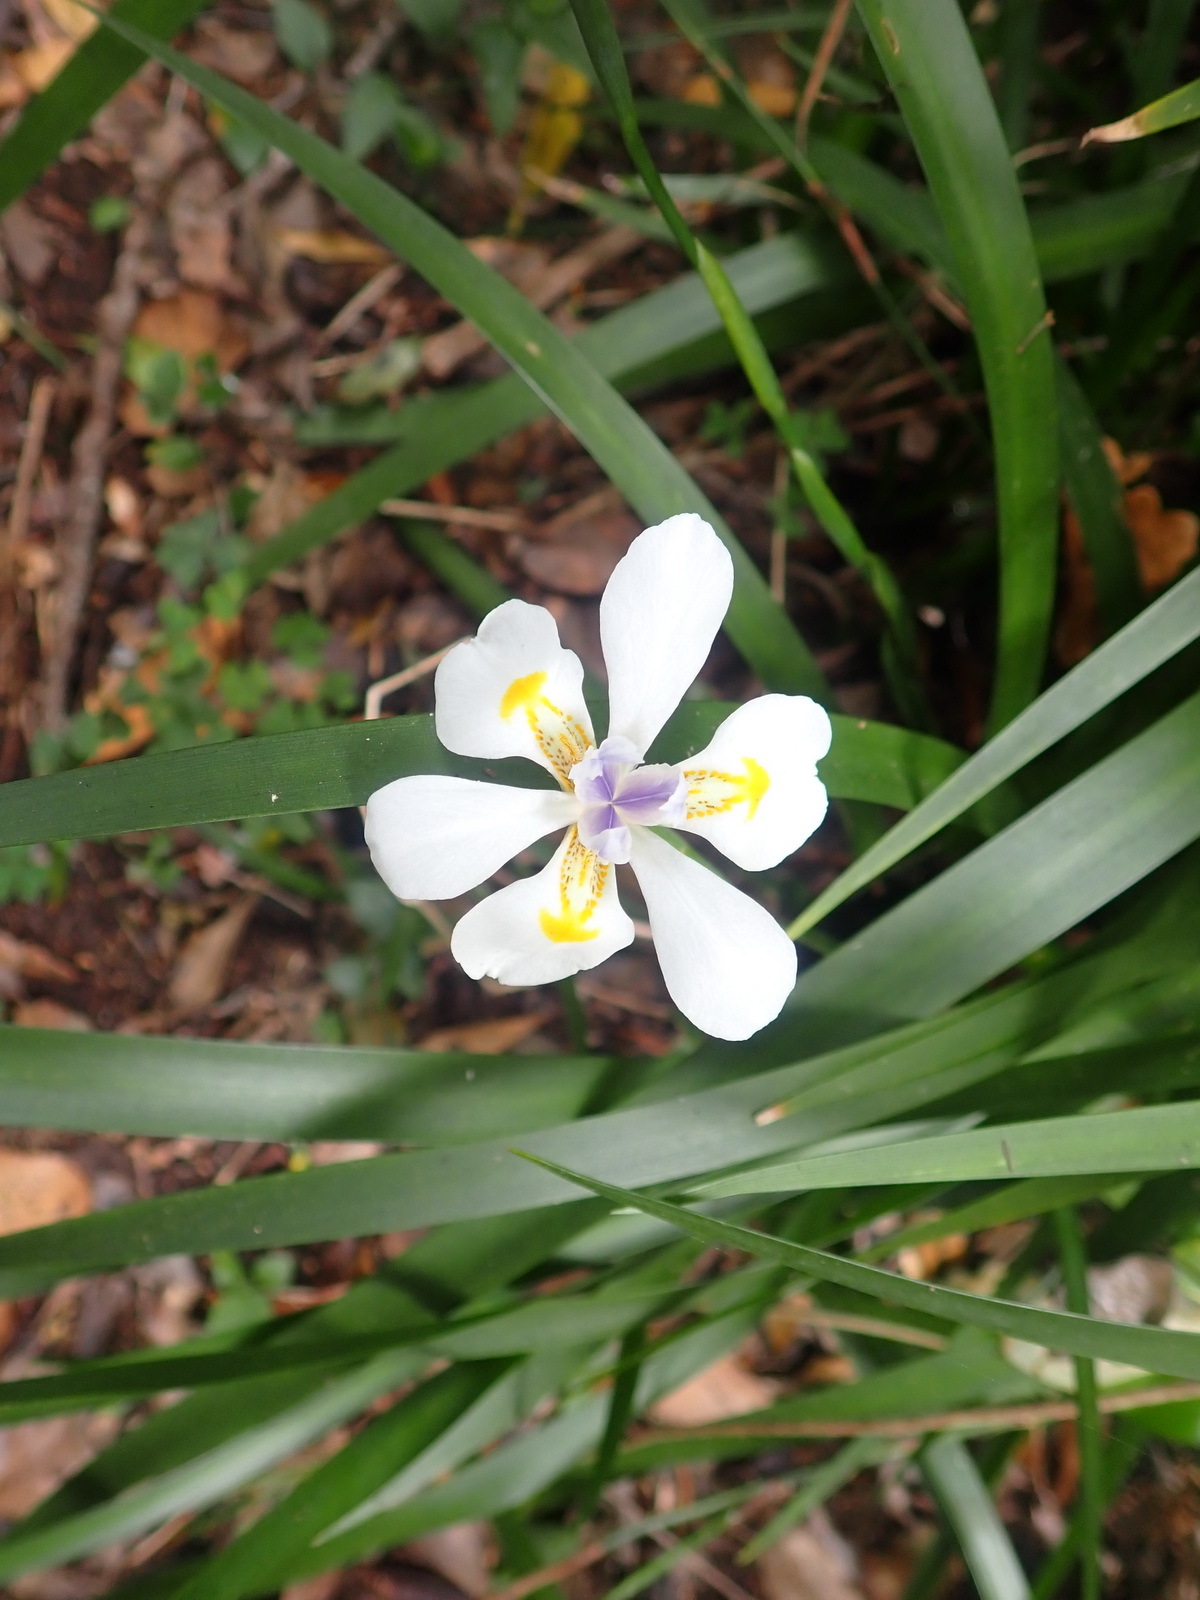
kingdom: Plantae
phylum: Tracheophyta
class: Liliopsida
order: Asparagales
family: Iridaceae
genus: Dietes
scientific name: Dietes iridioides
